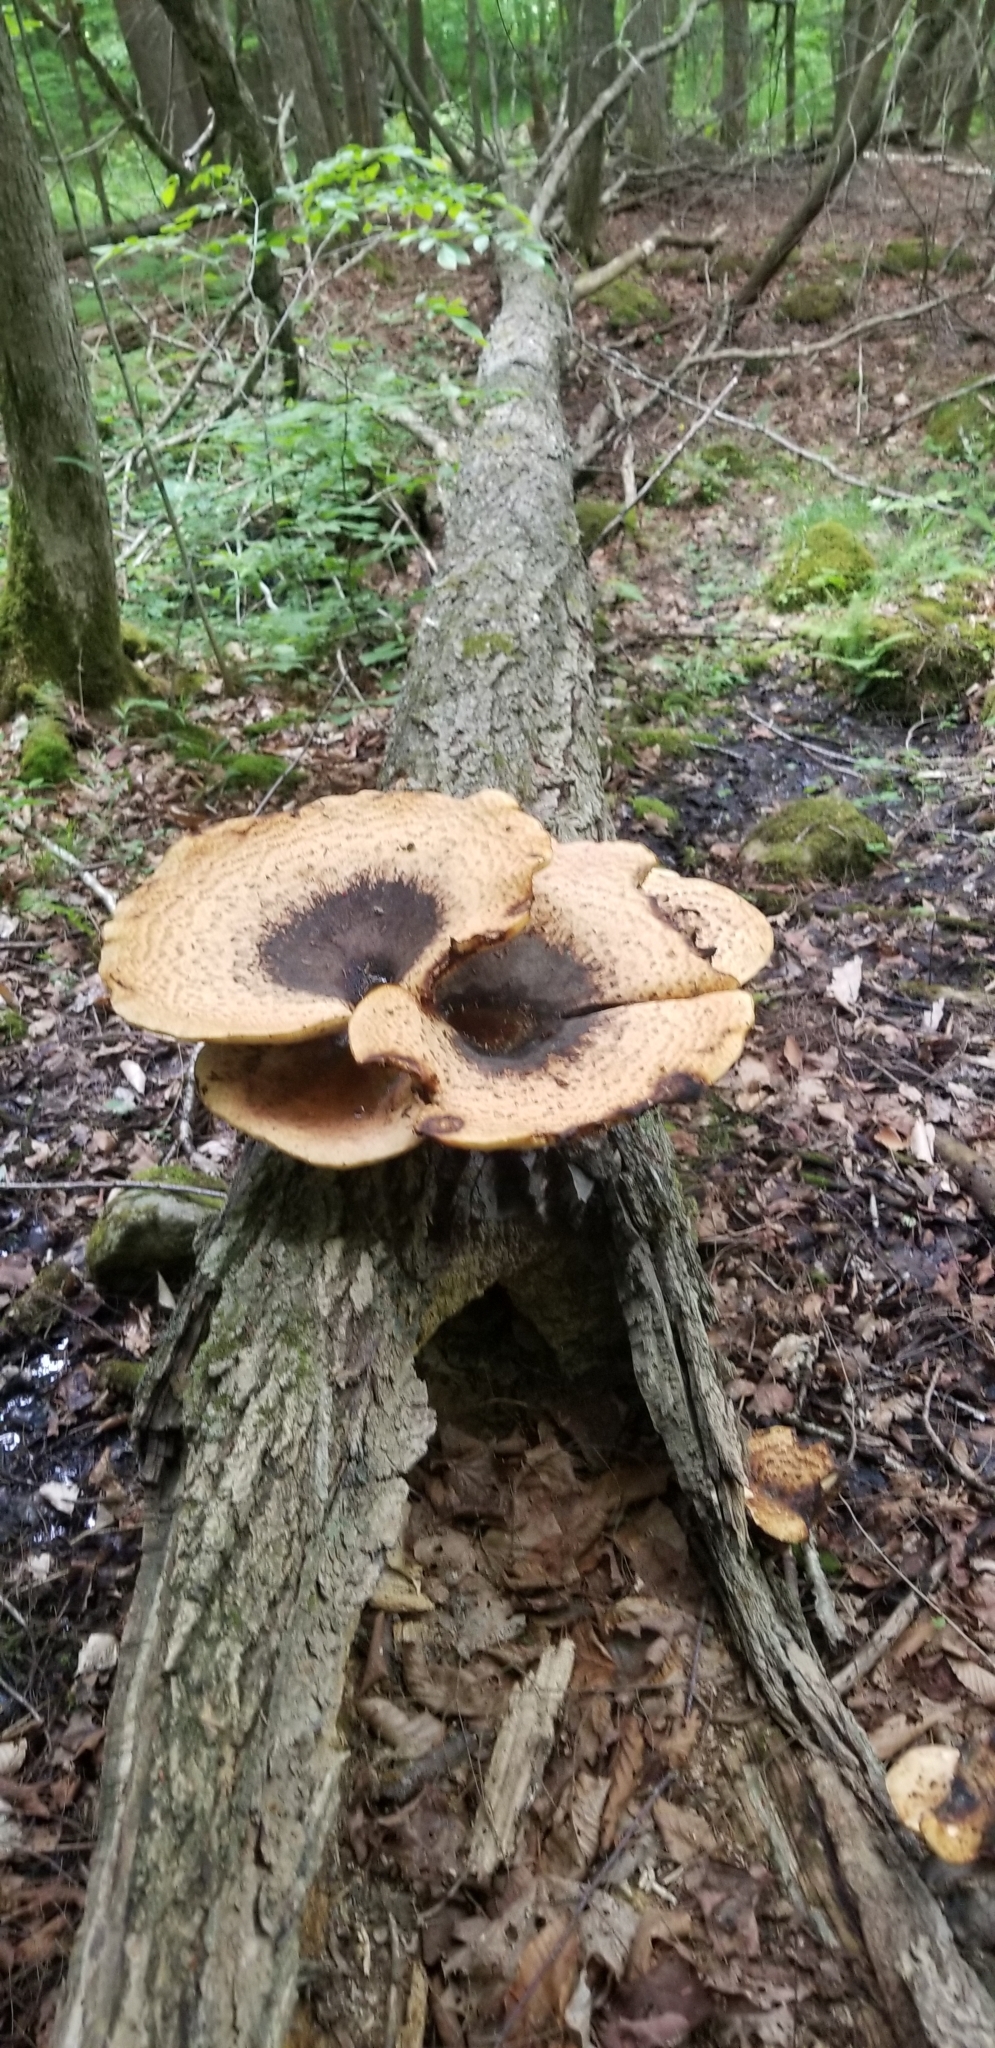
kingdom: Fungi
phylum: Basidiomycota
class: Agaricomycetes
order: Polyporales
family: Polyporaceae
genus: Cerioporus
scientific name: Cerioporus squamosus
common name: Dryad's saddle
